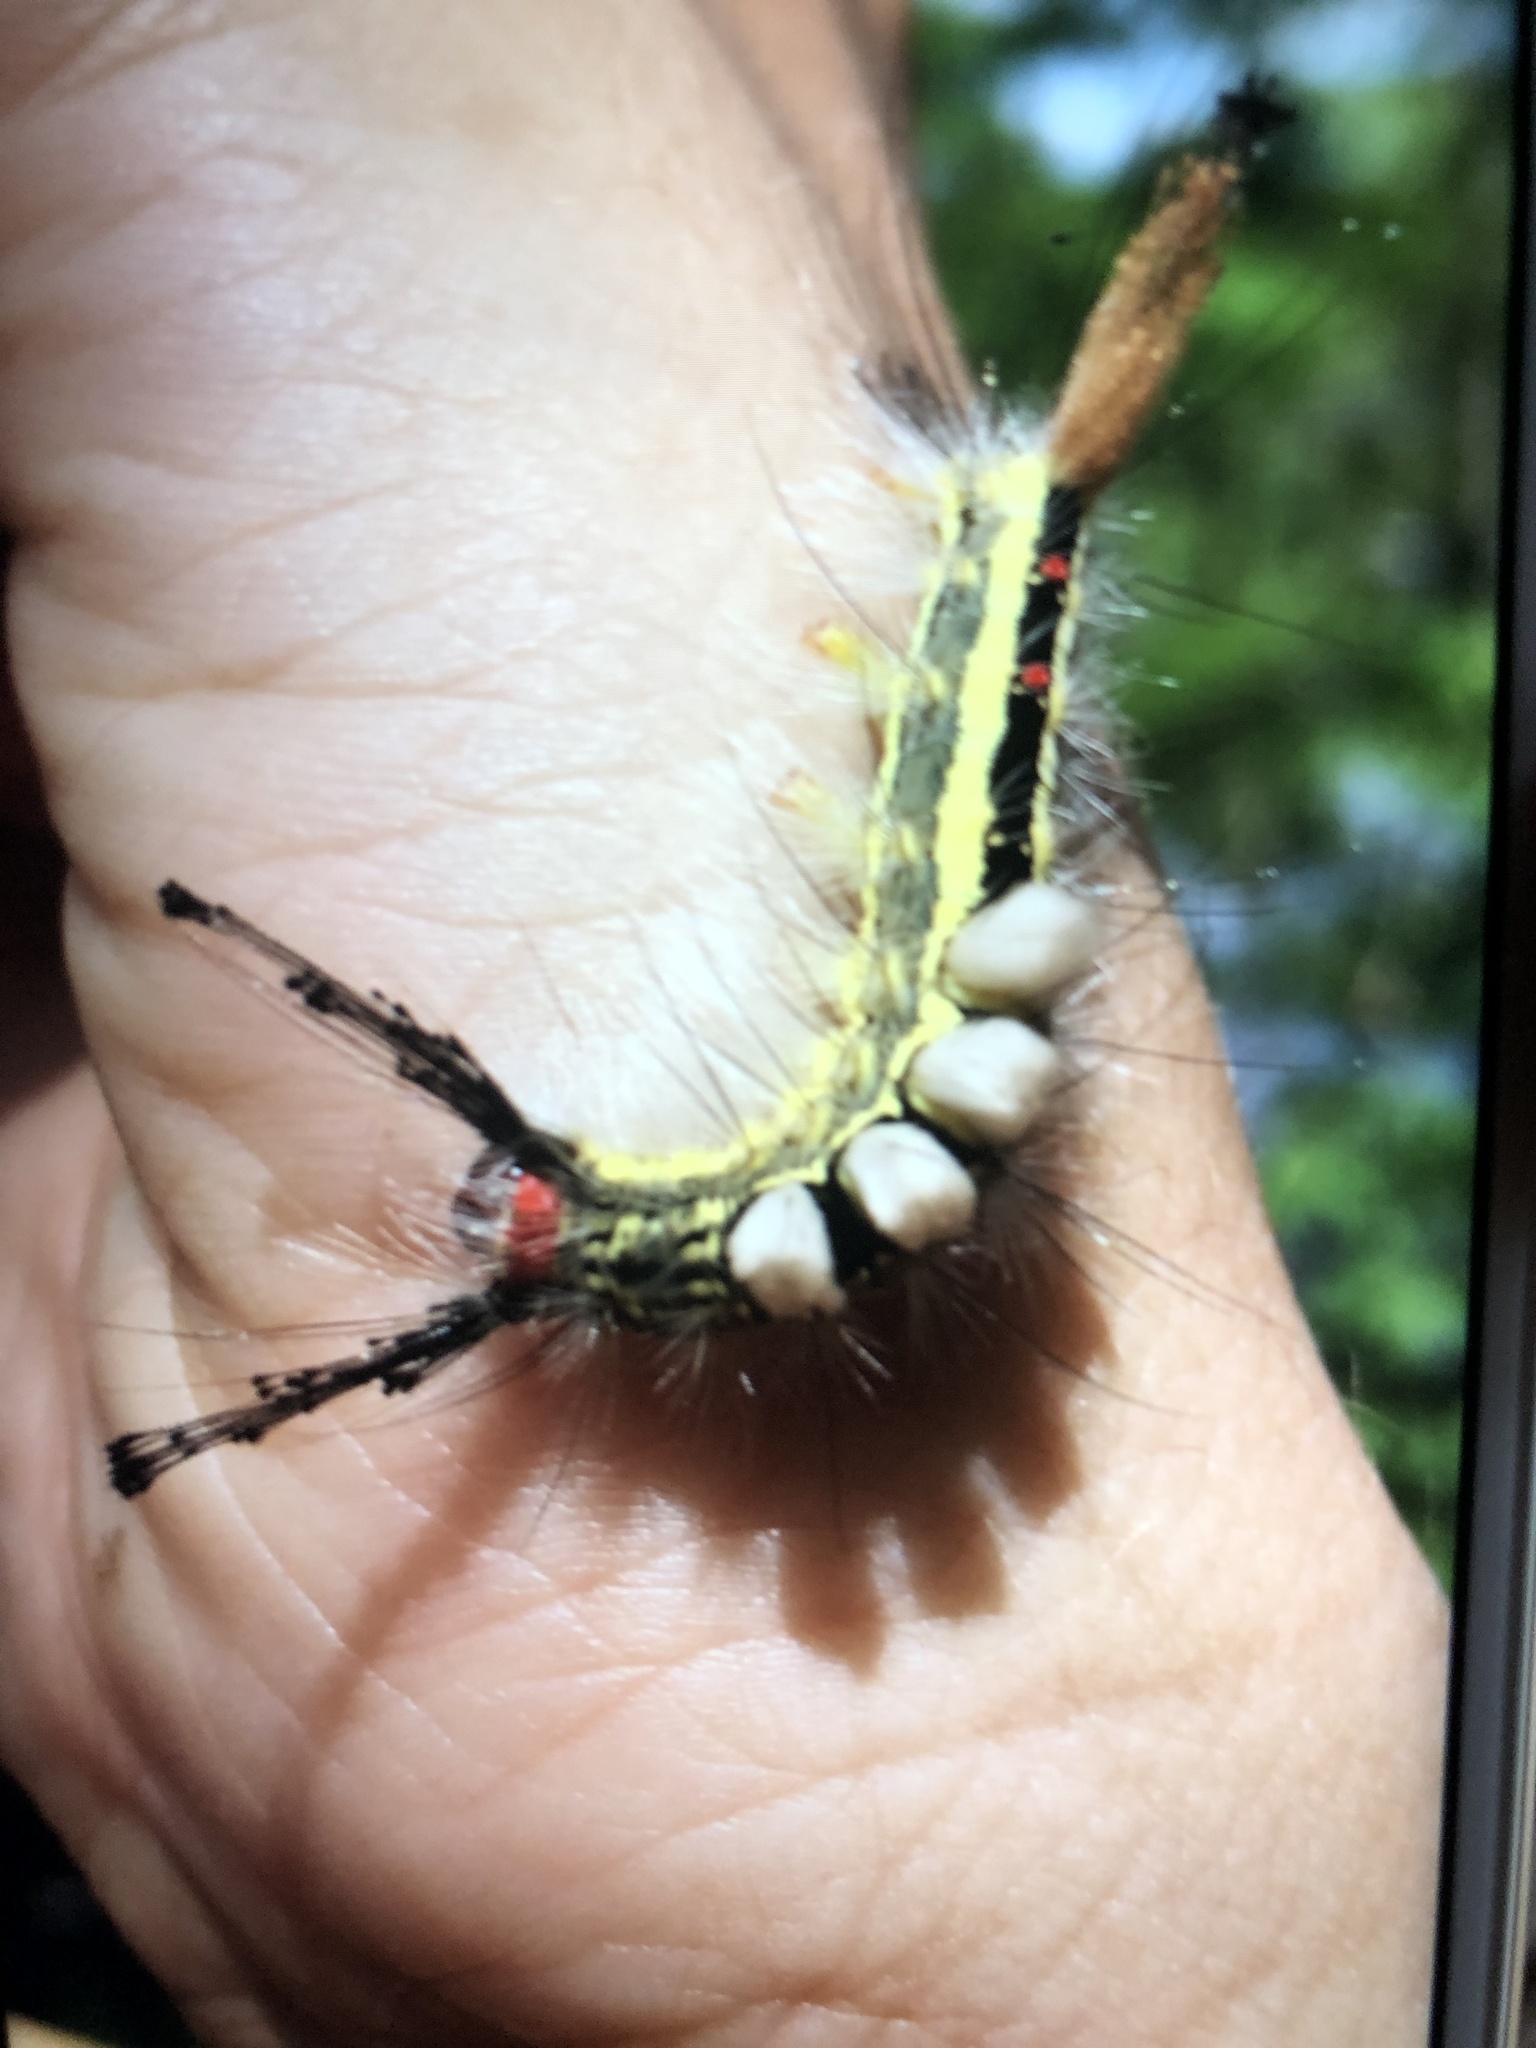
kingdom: Animalia
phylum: Arthropoda
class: Insecta
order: Lepidoptera
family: Erebidae
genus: Orgyia
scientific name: Orgyia leucostigma
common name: White-marked tussock moth
